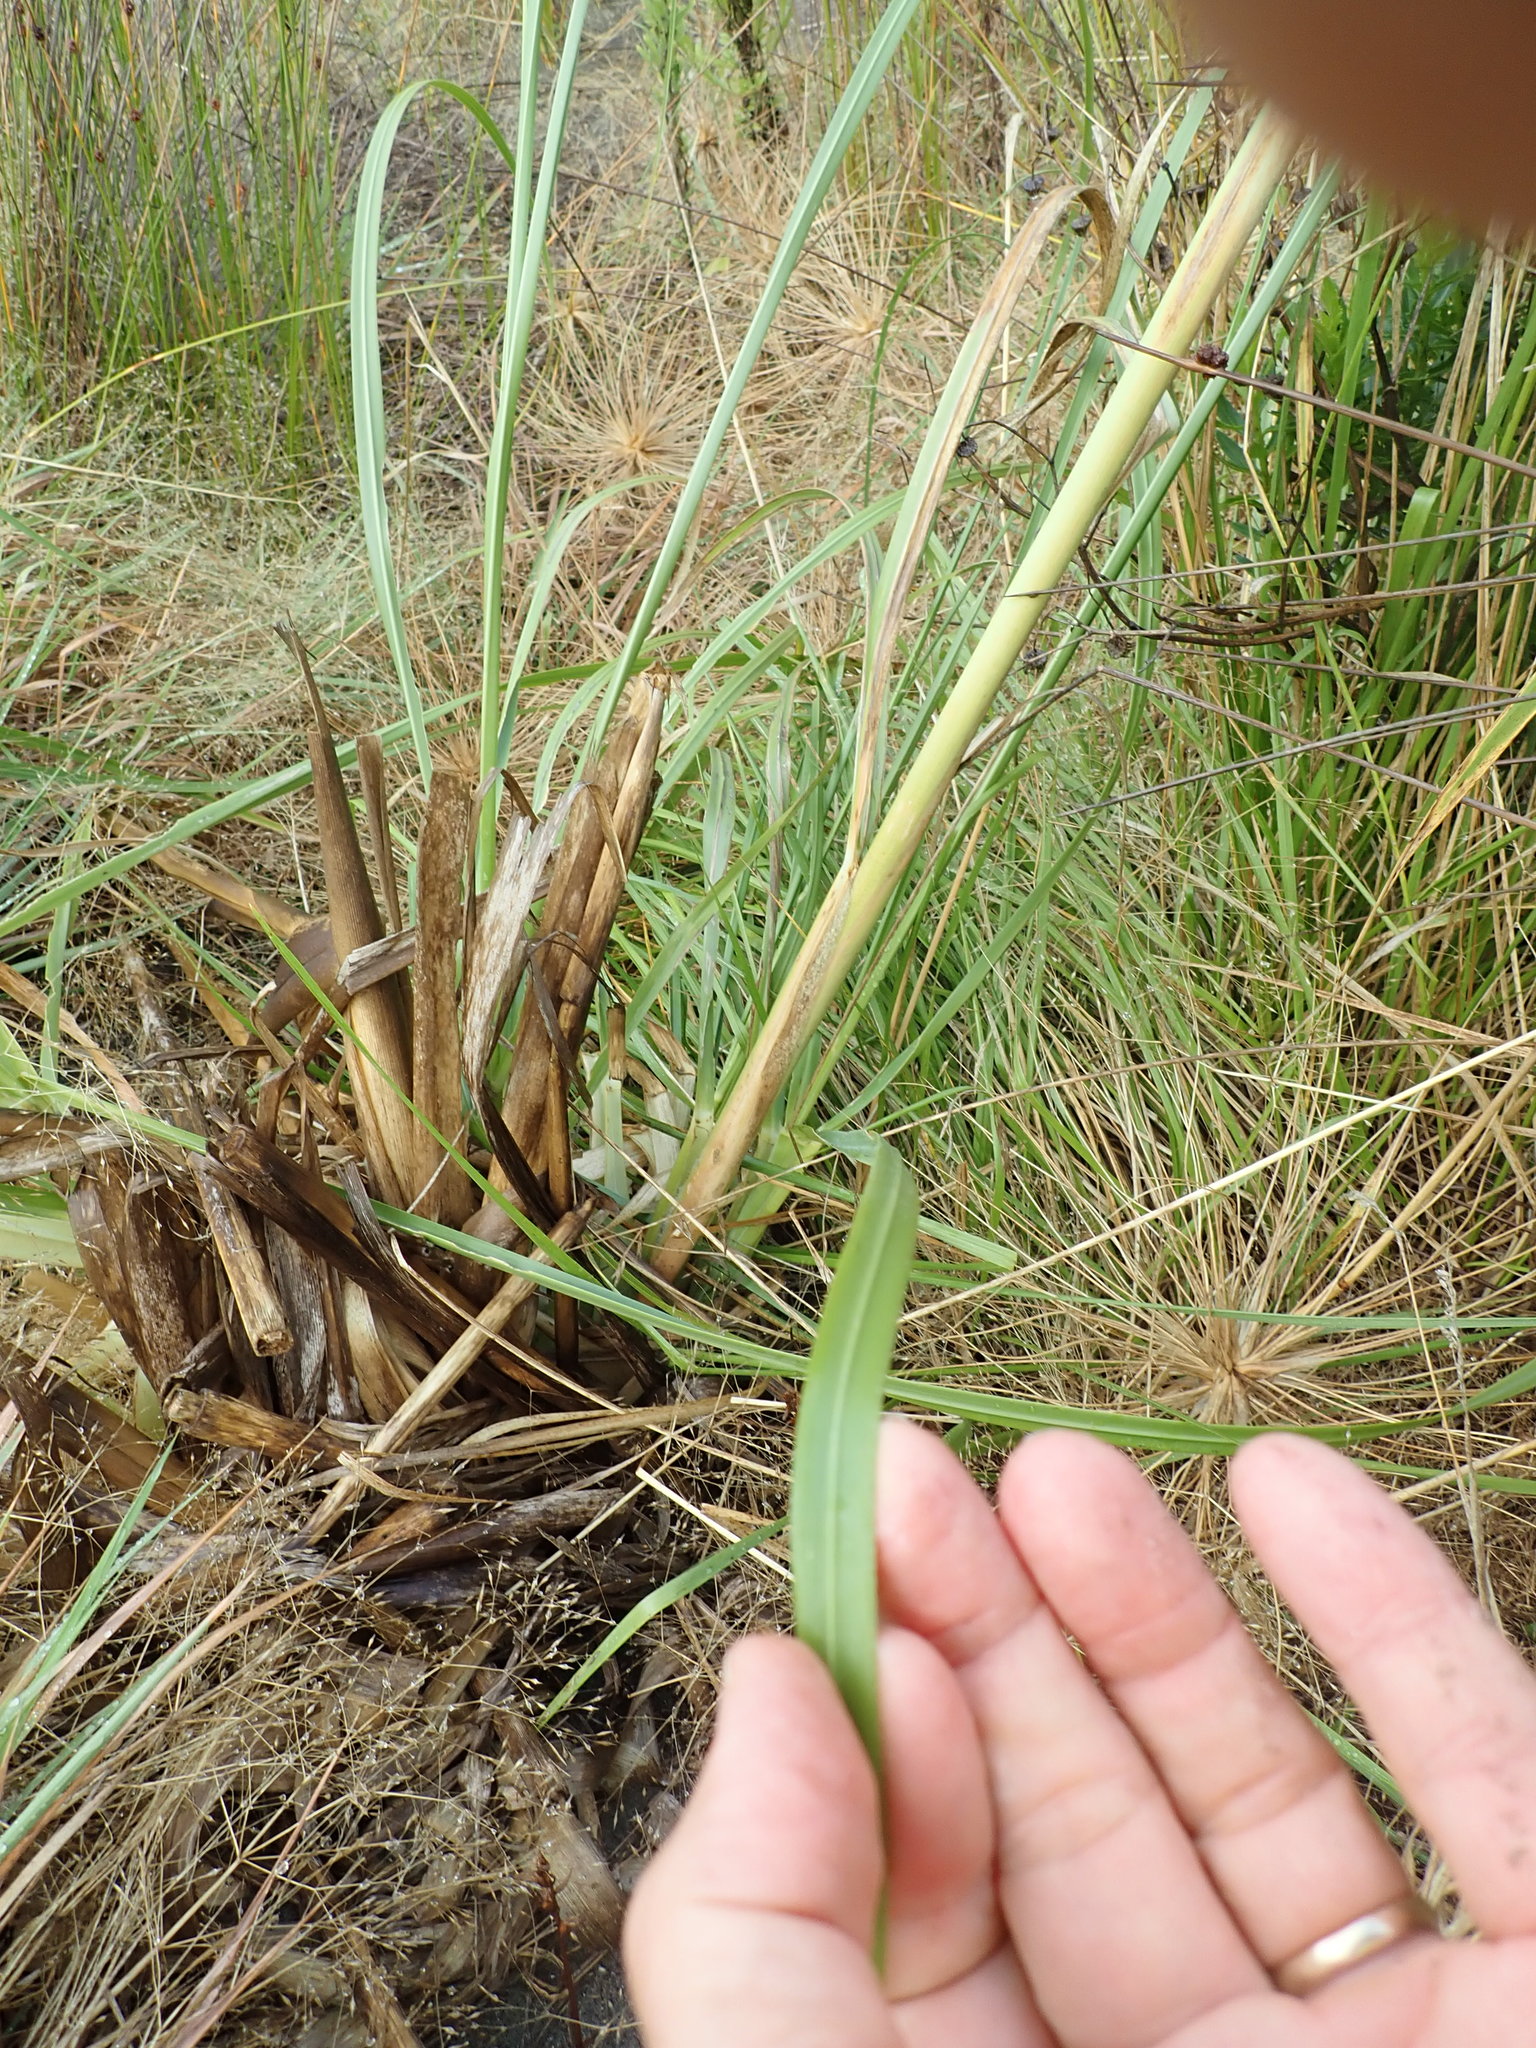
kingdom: Plantae
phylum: Tracheophyta
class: Liliopsida
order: Poales
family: Poaceae
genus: Cortaderia
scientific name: Cortaderia jubata
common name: Purple pampas grass
